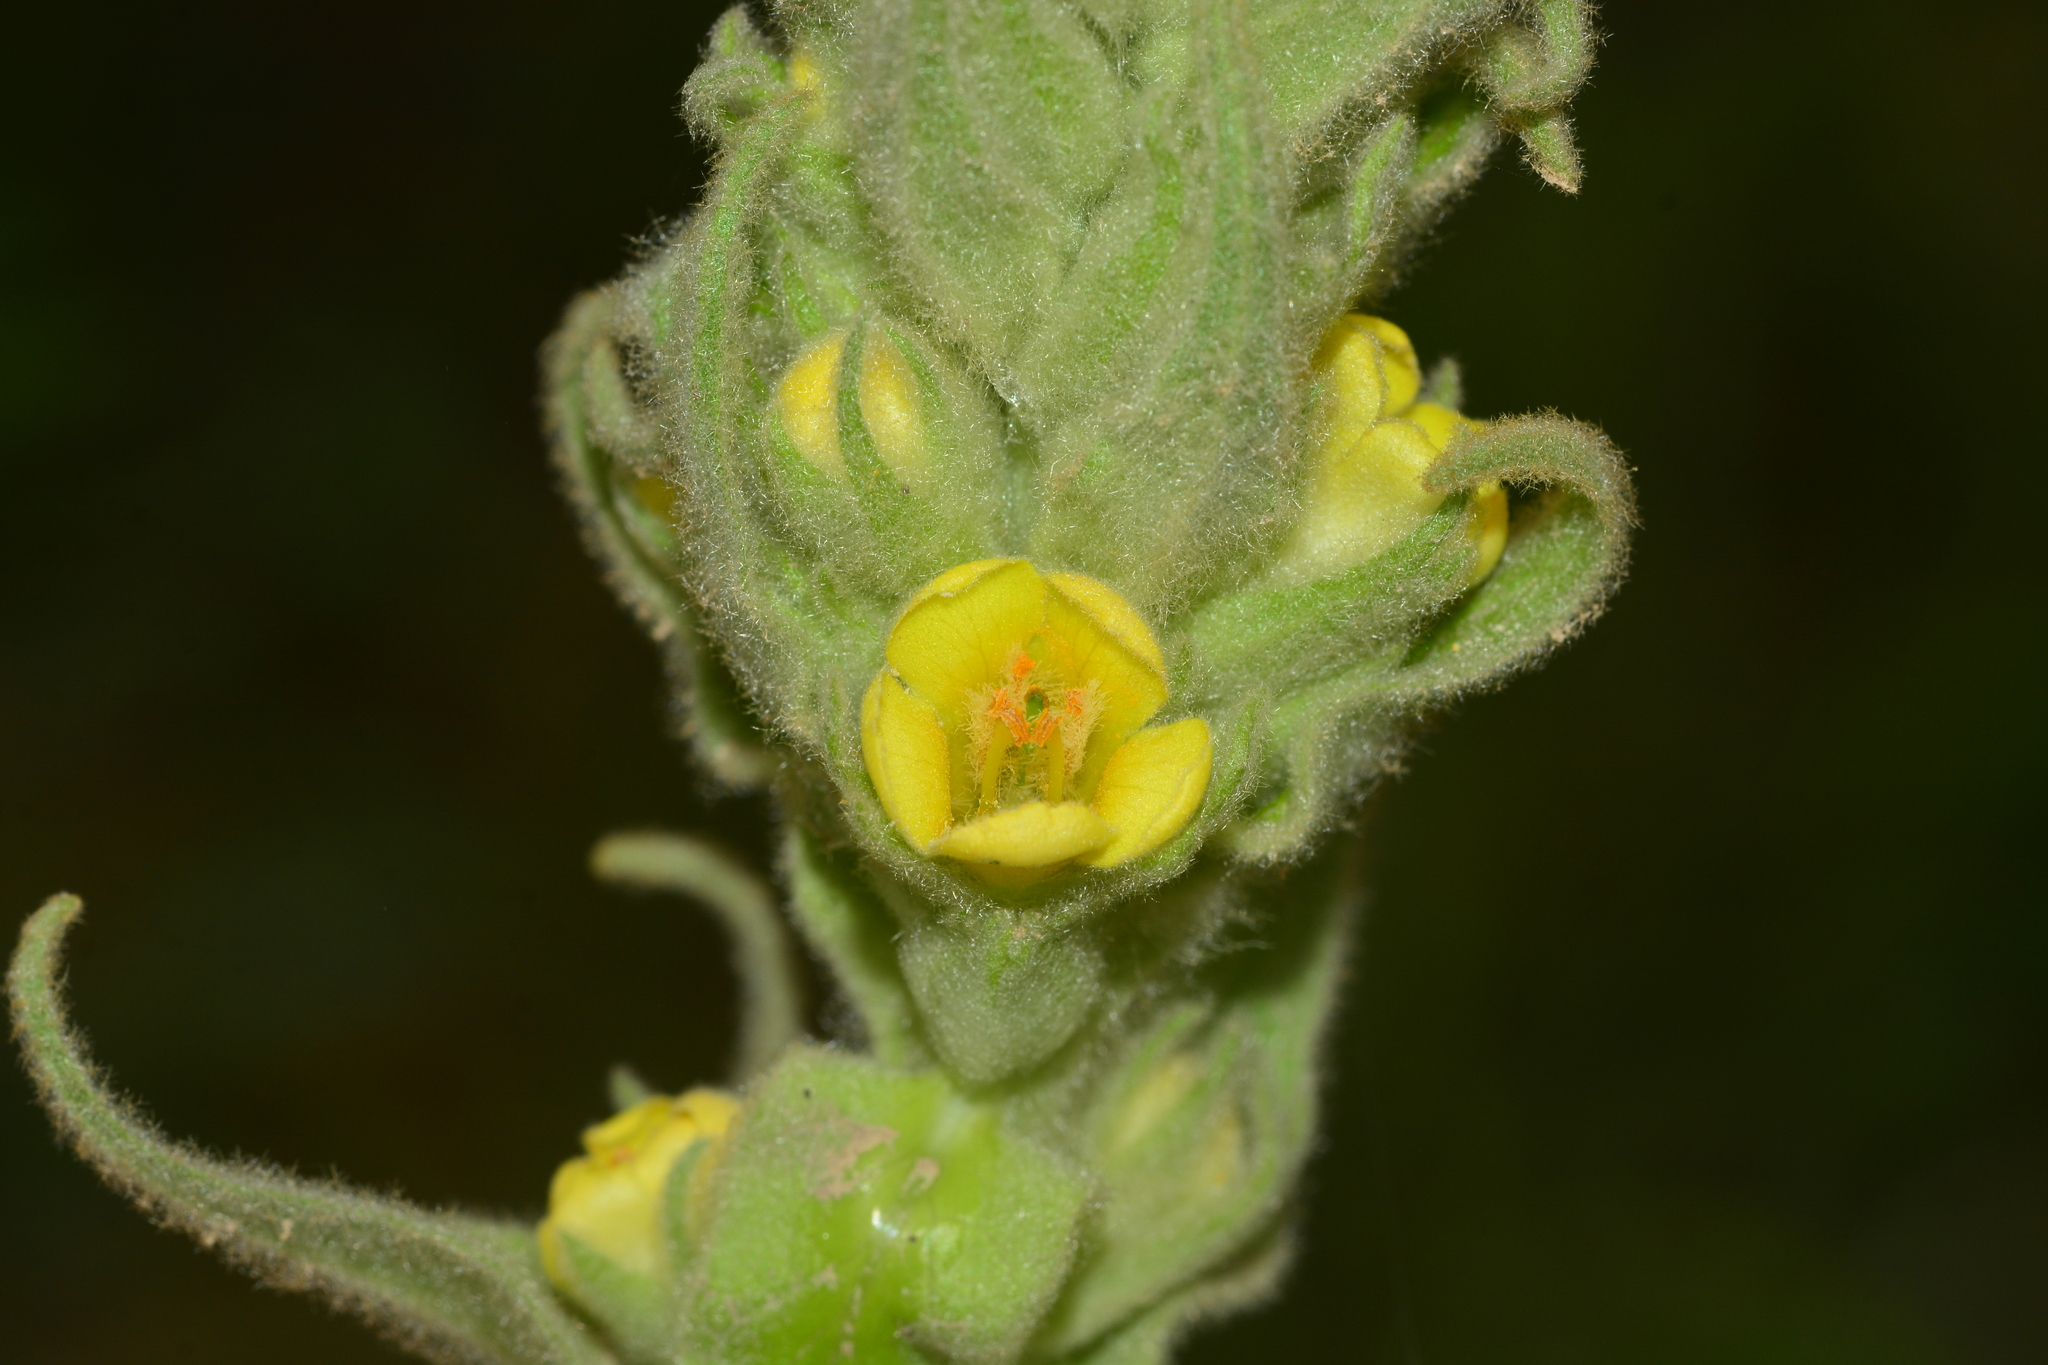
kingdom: Plantae
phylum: Tracheophyta
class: Magnoliopsida
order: Lamiales
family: Scrophulariaceae
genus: Verbascum
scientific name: Verbascum thapsus
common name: Common mullein
